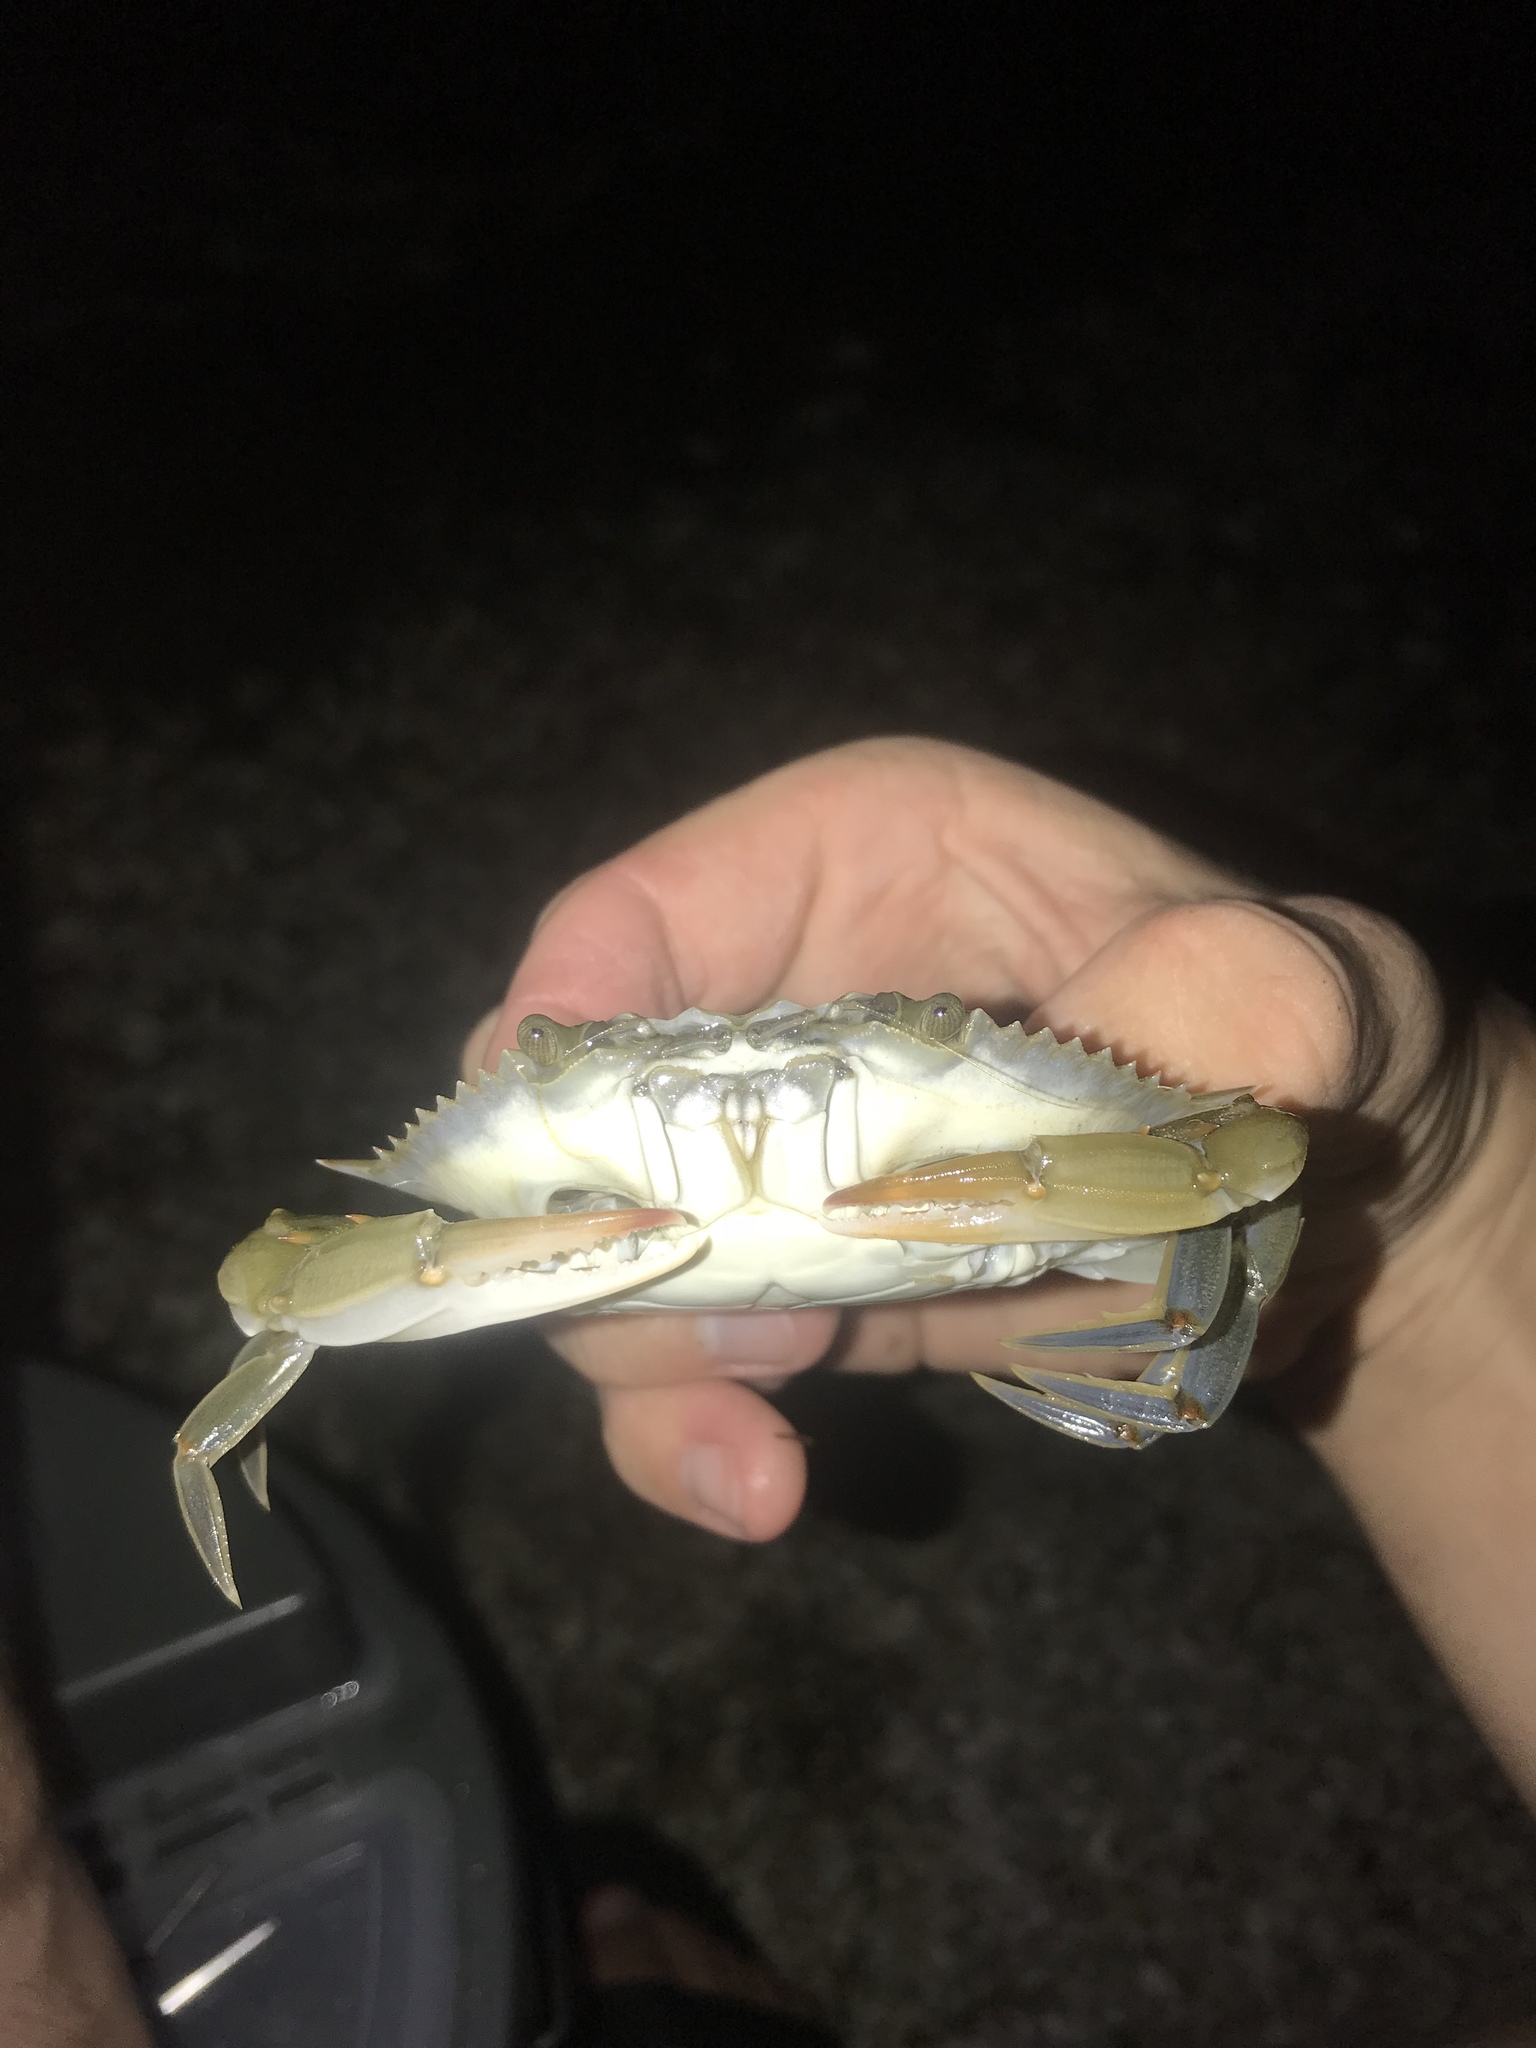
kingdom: Animalia
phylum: Arthropoda
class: Malacostraca
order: Decapoda
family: Portunidae
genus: Callinectes
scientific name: Callinectes sapidus
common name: Blue crab
